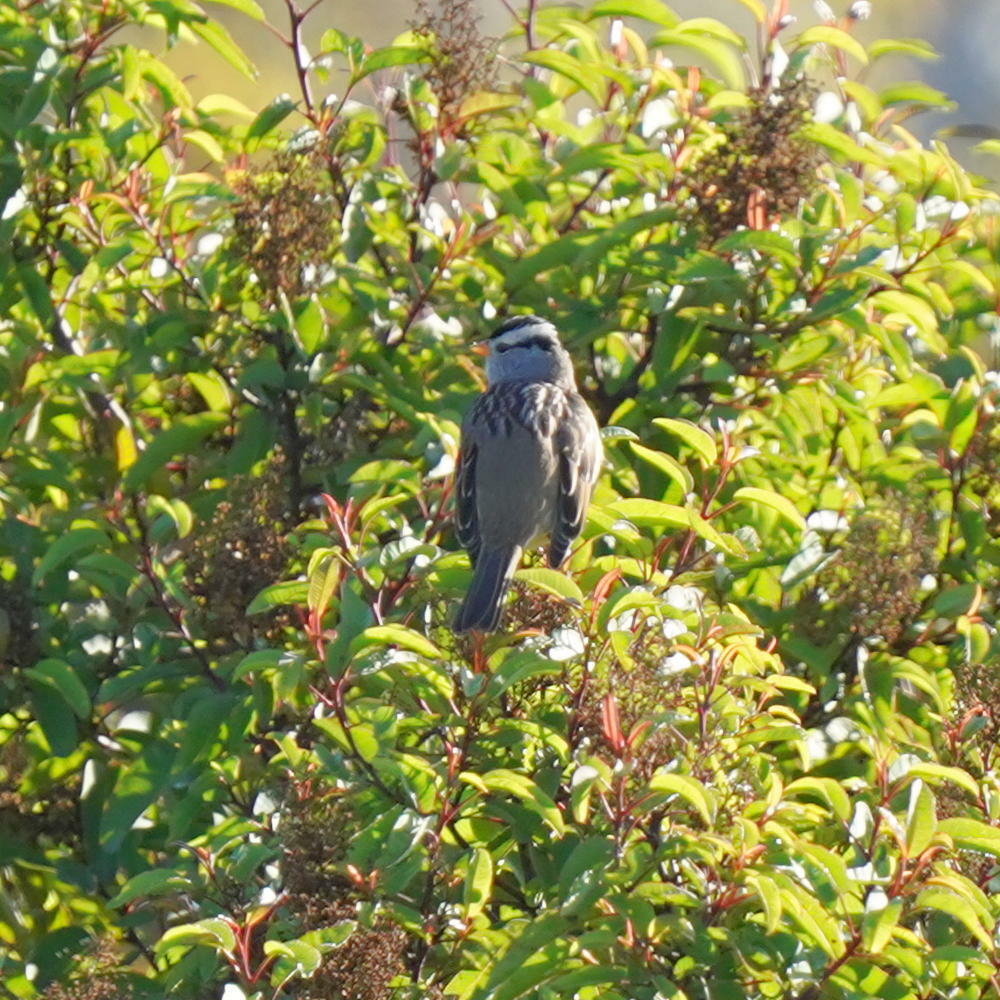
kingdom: Animalia
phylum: Chordata
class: Aves
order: Passeriformes
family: Passerellidae
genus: Zonotrichia
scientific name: Zonotrichia leucophrys
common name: White-crowned sparrow
